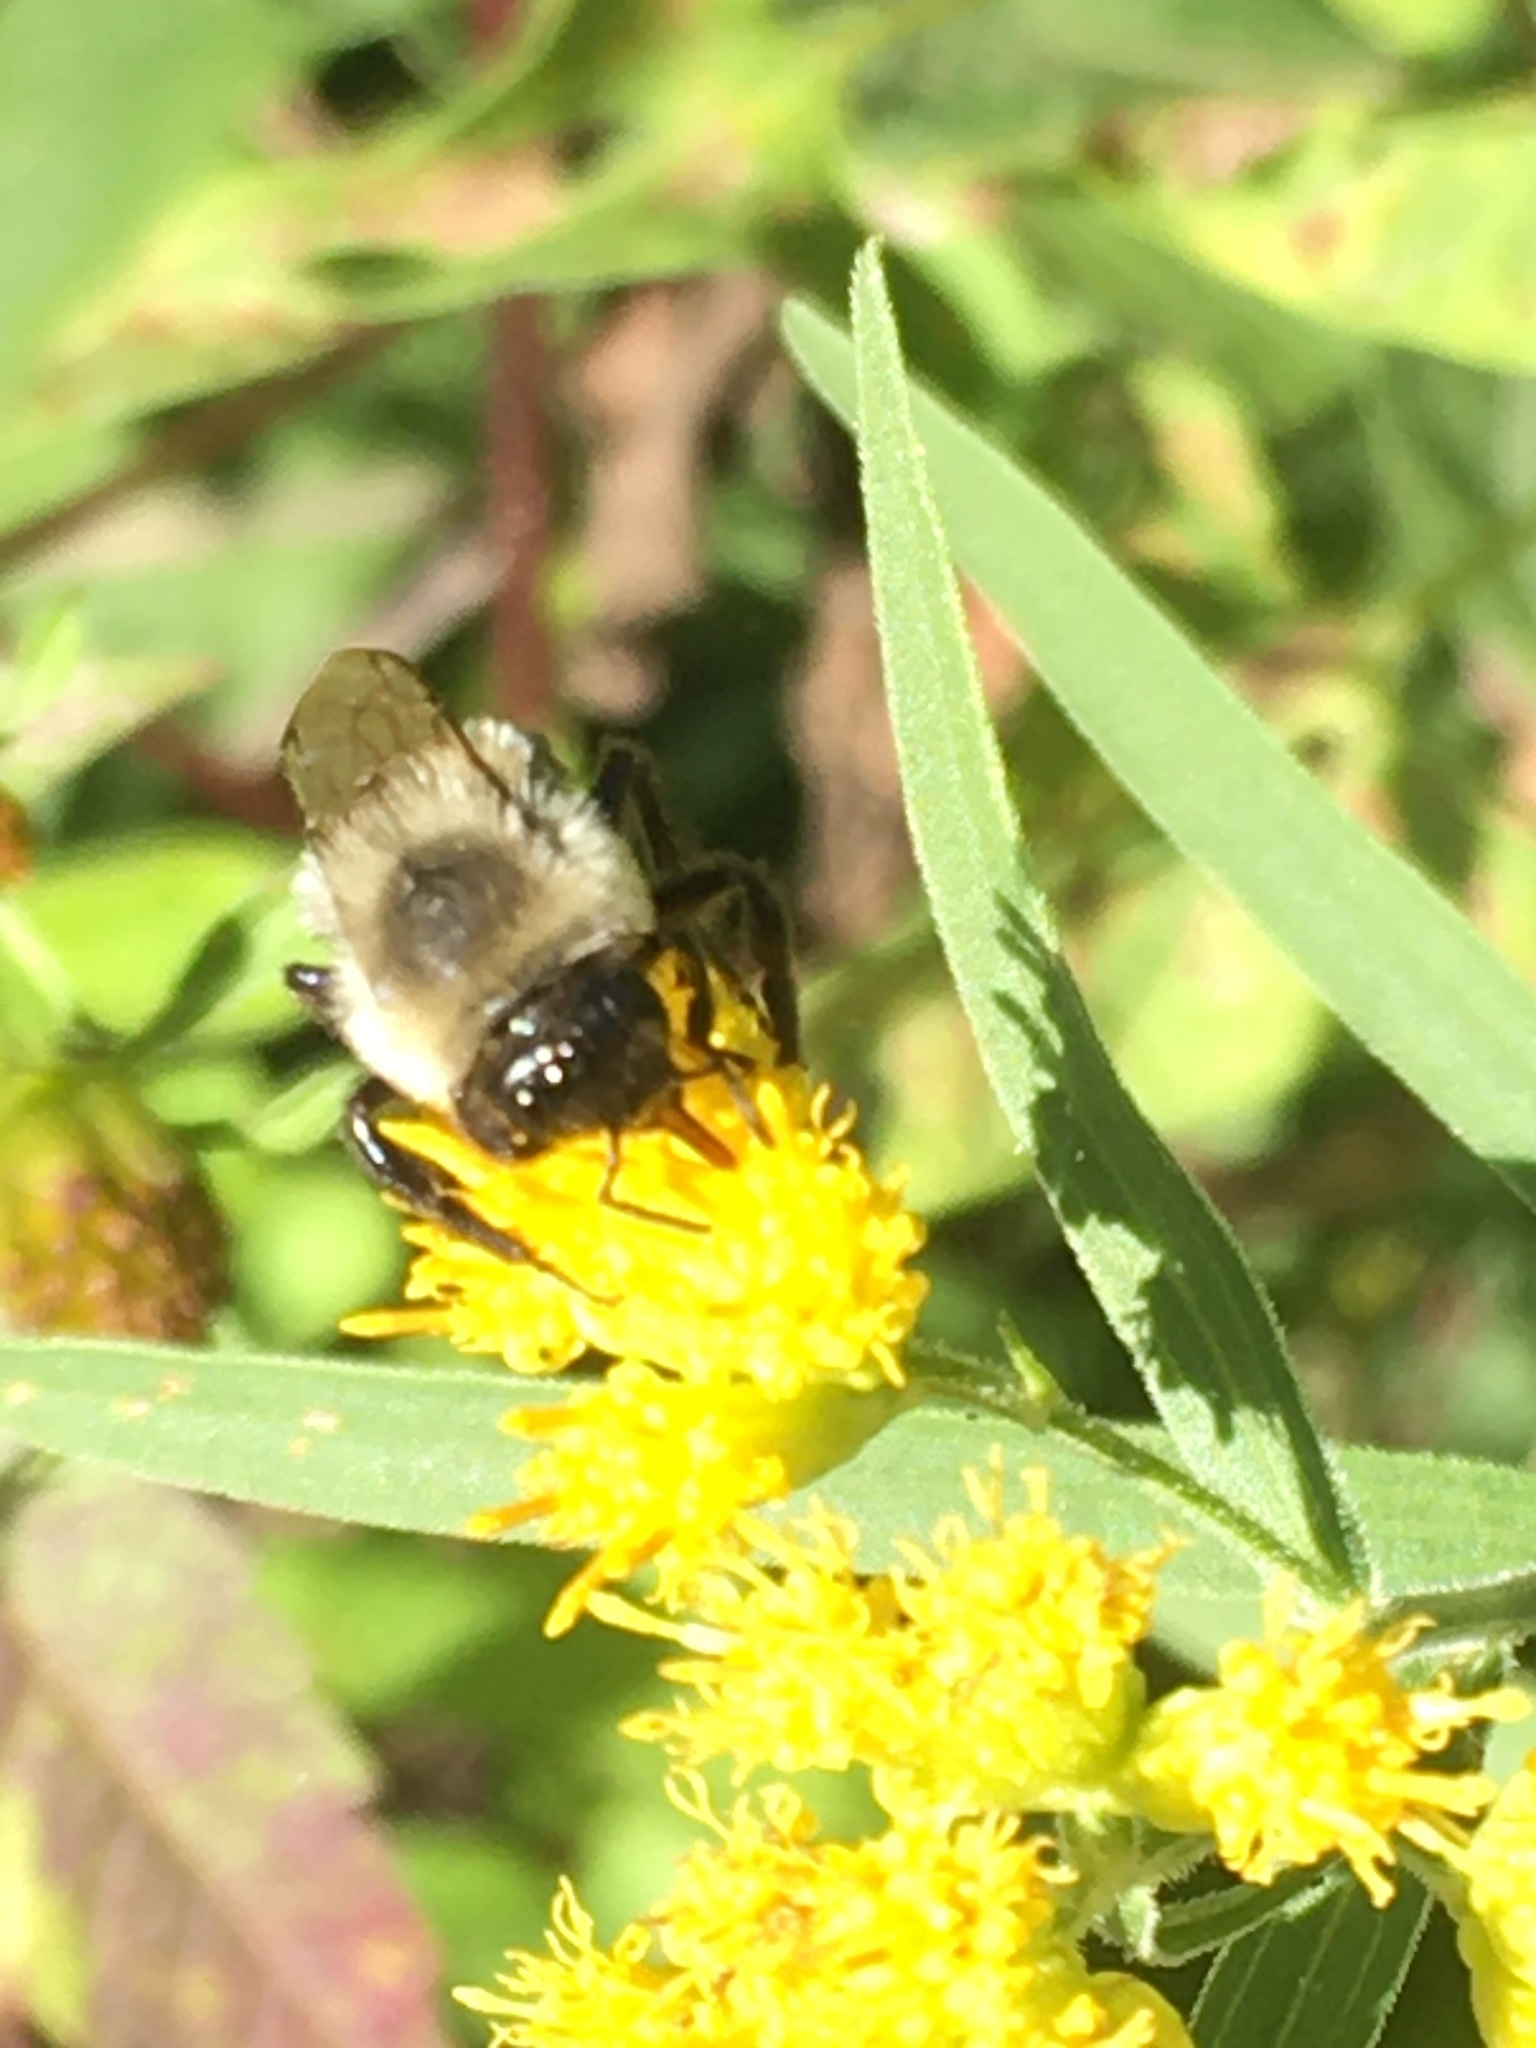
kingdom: Animalia
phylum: Arthropoda
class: Insecta
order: Hymenoptera
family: Apidae
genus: Bombus
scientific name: Bombus impatiens
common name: Common eastern bumble bee
